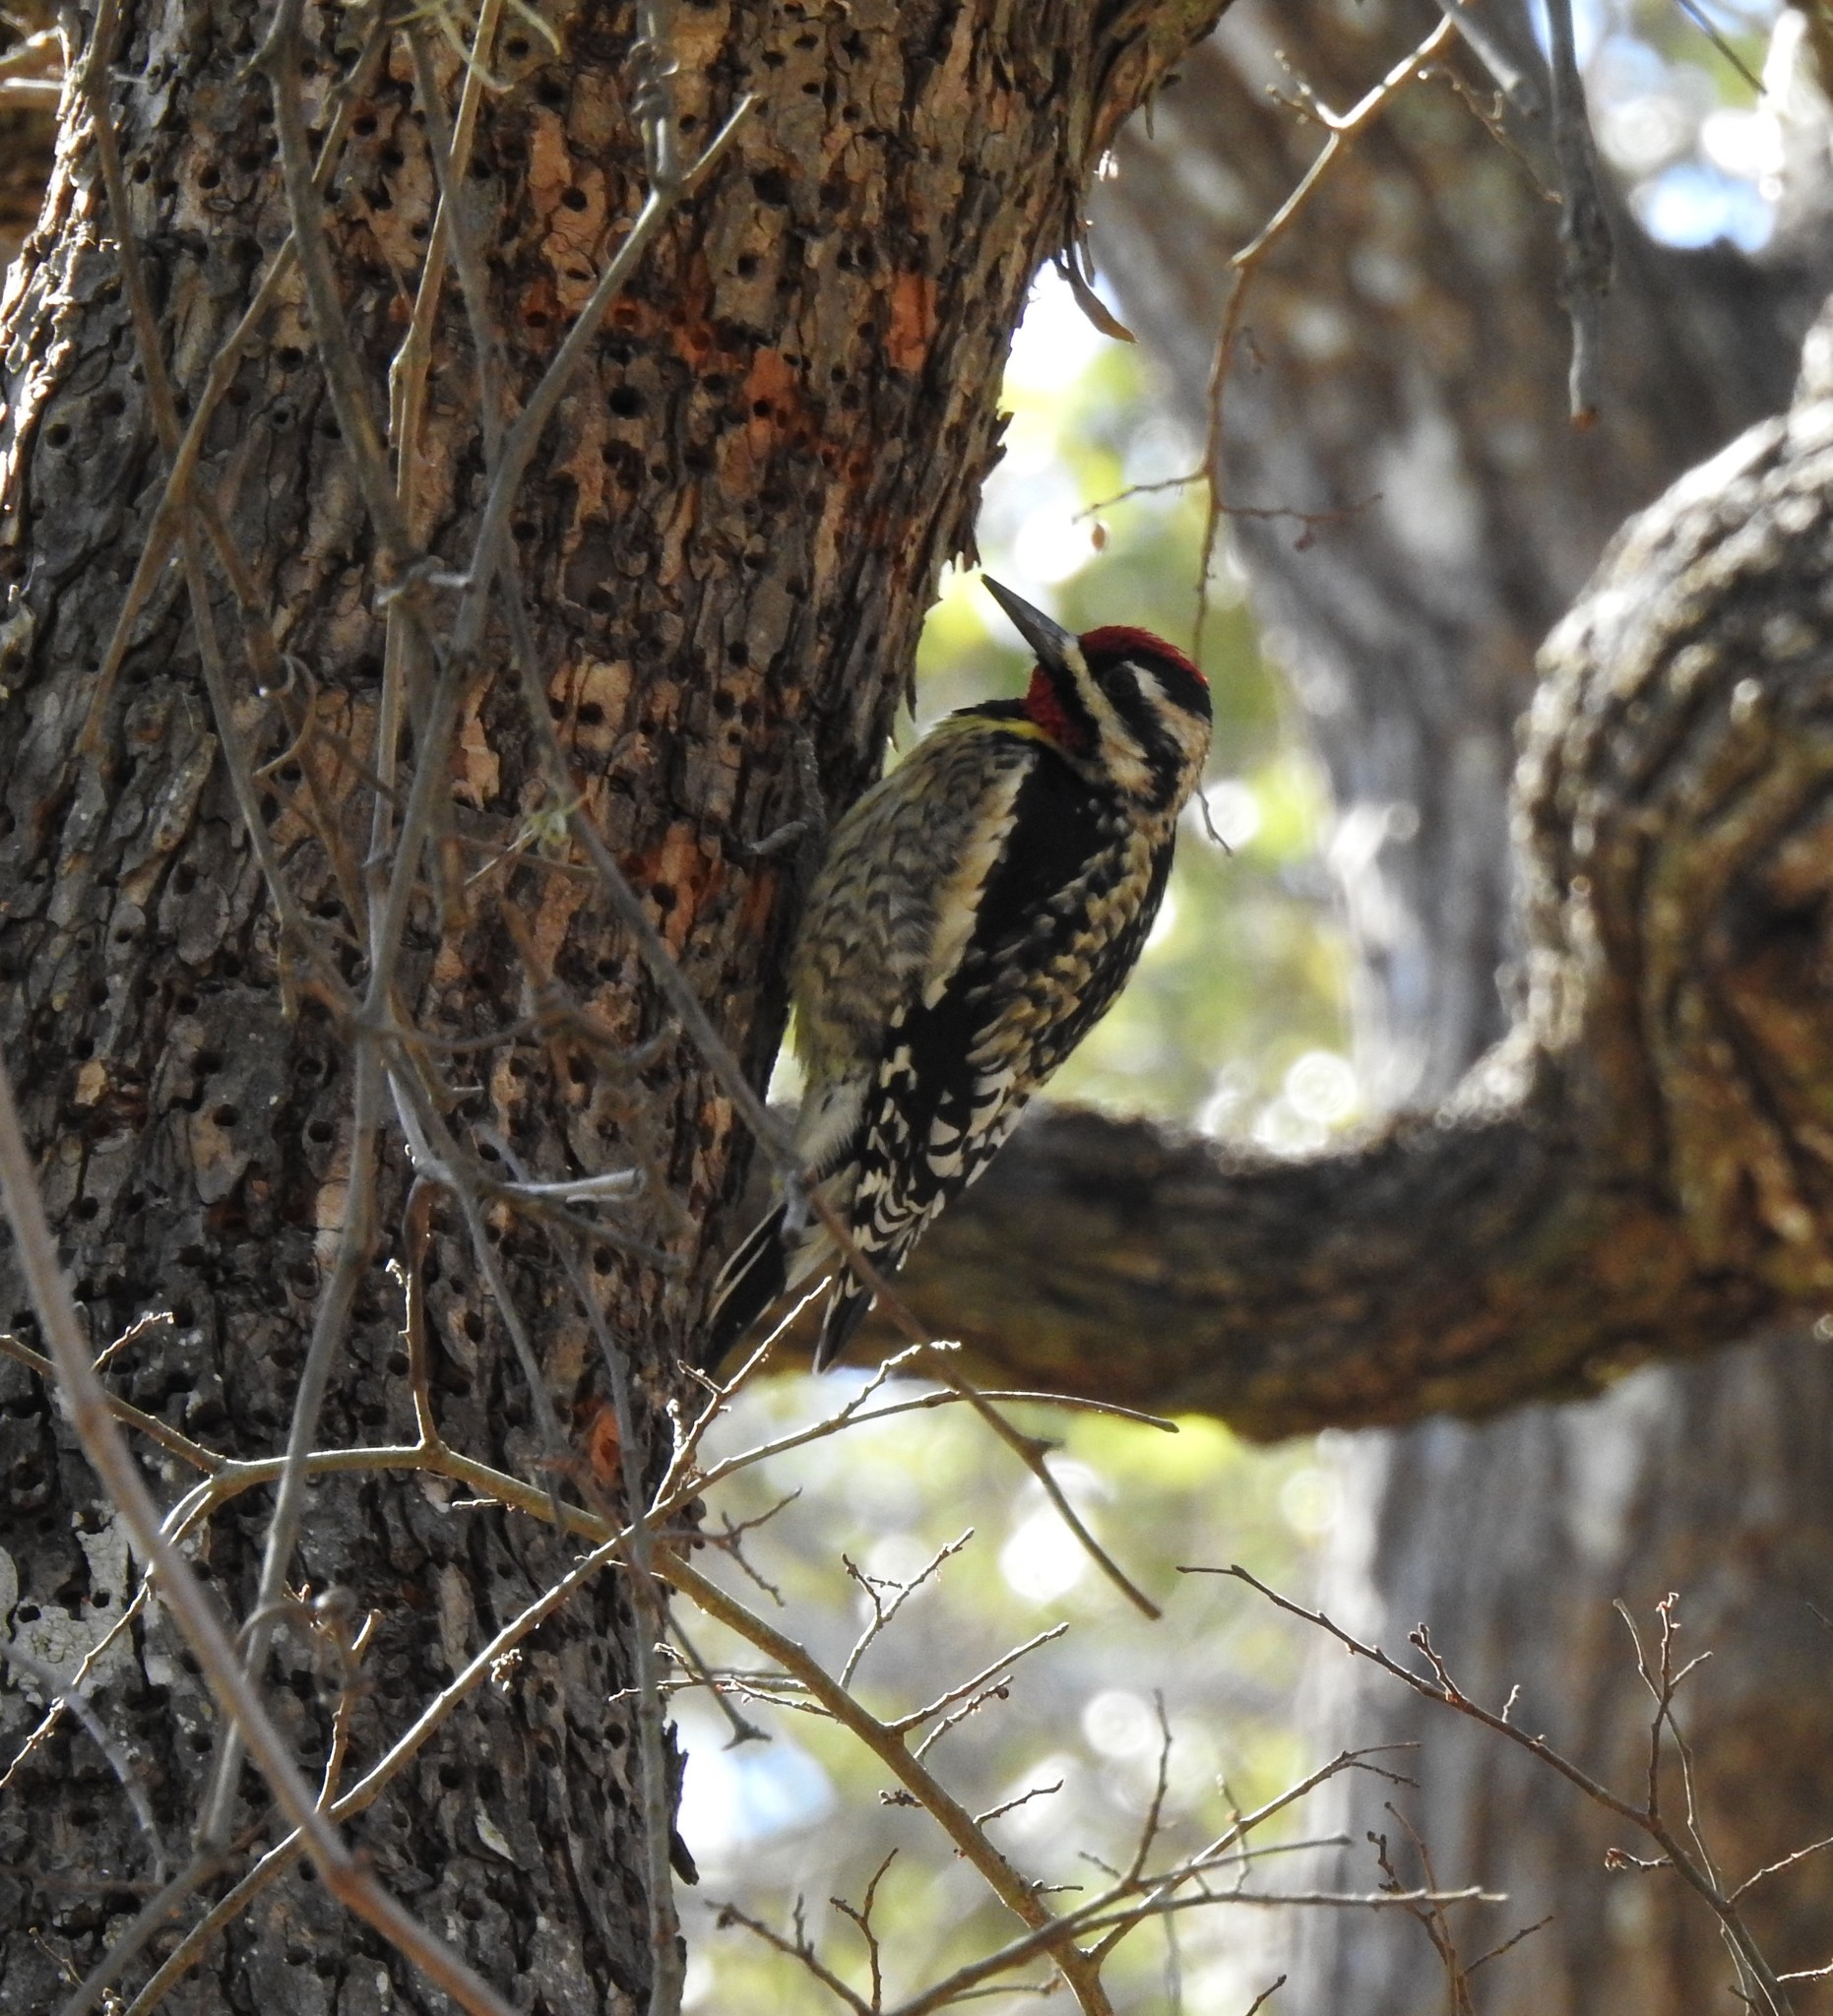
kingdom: Animalia
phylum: Chordata
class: Aves
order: Piciformes
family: Picidae
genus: Sphyrapicus
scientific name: Sphyrapicus varius
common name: Yellow-bellied sapsucker
